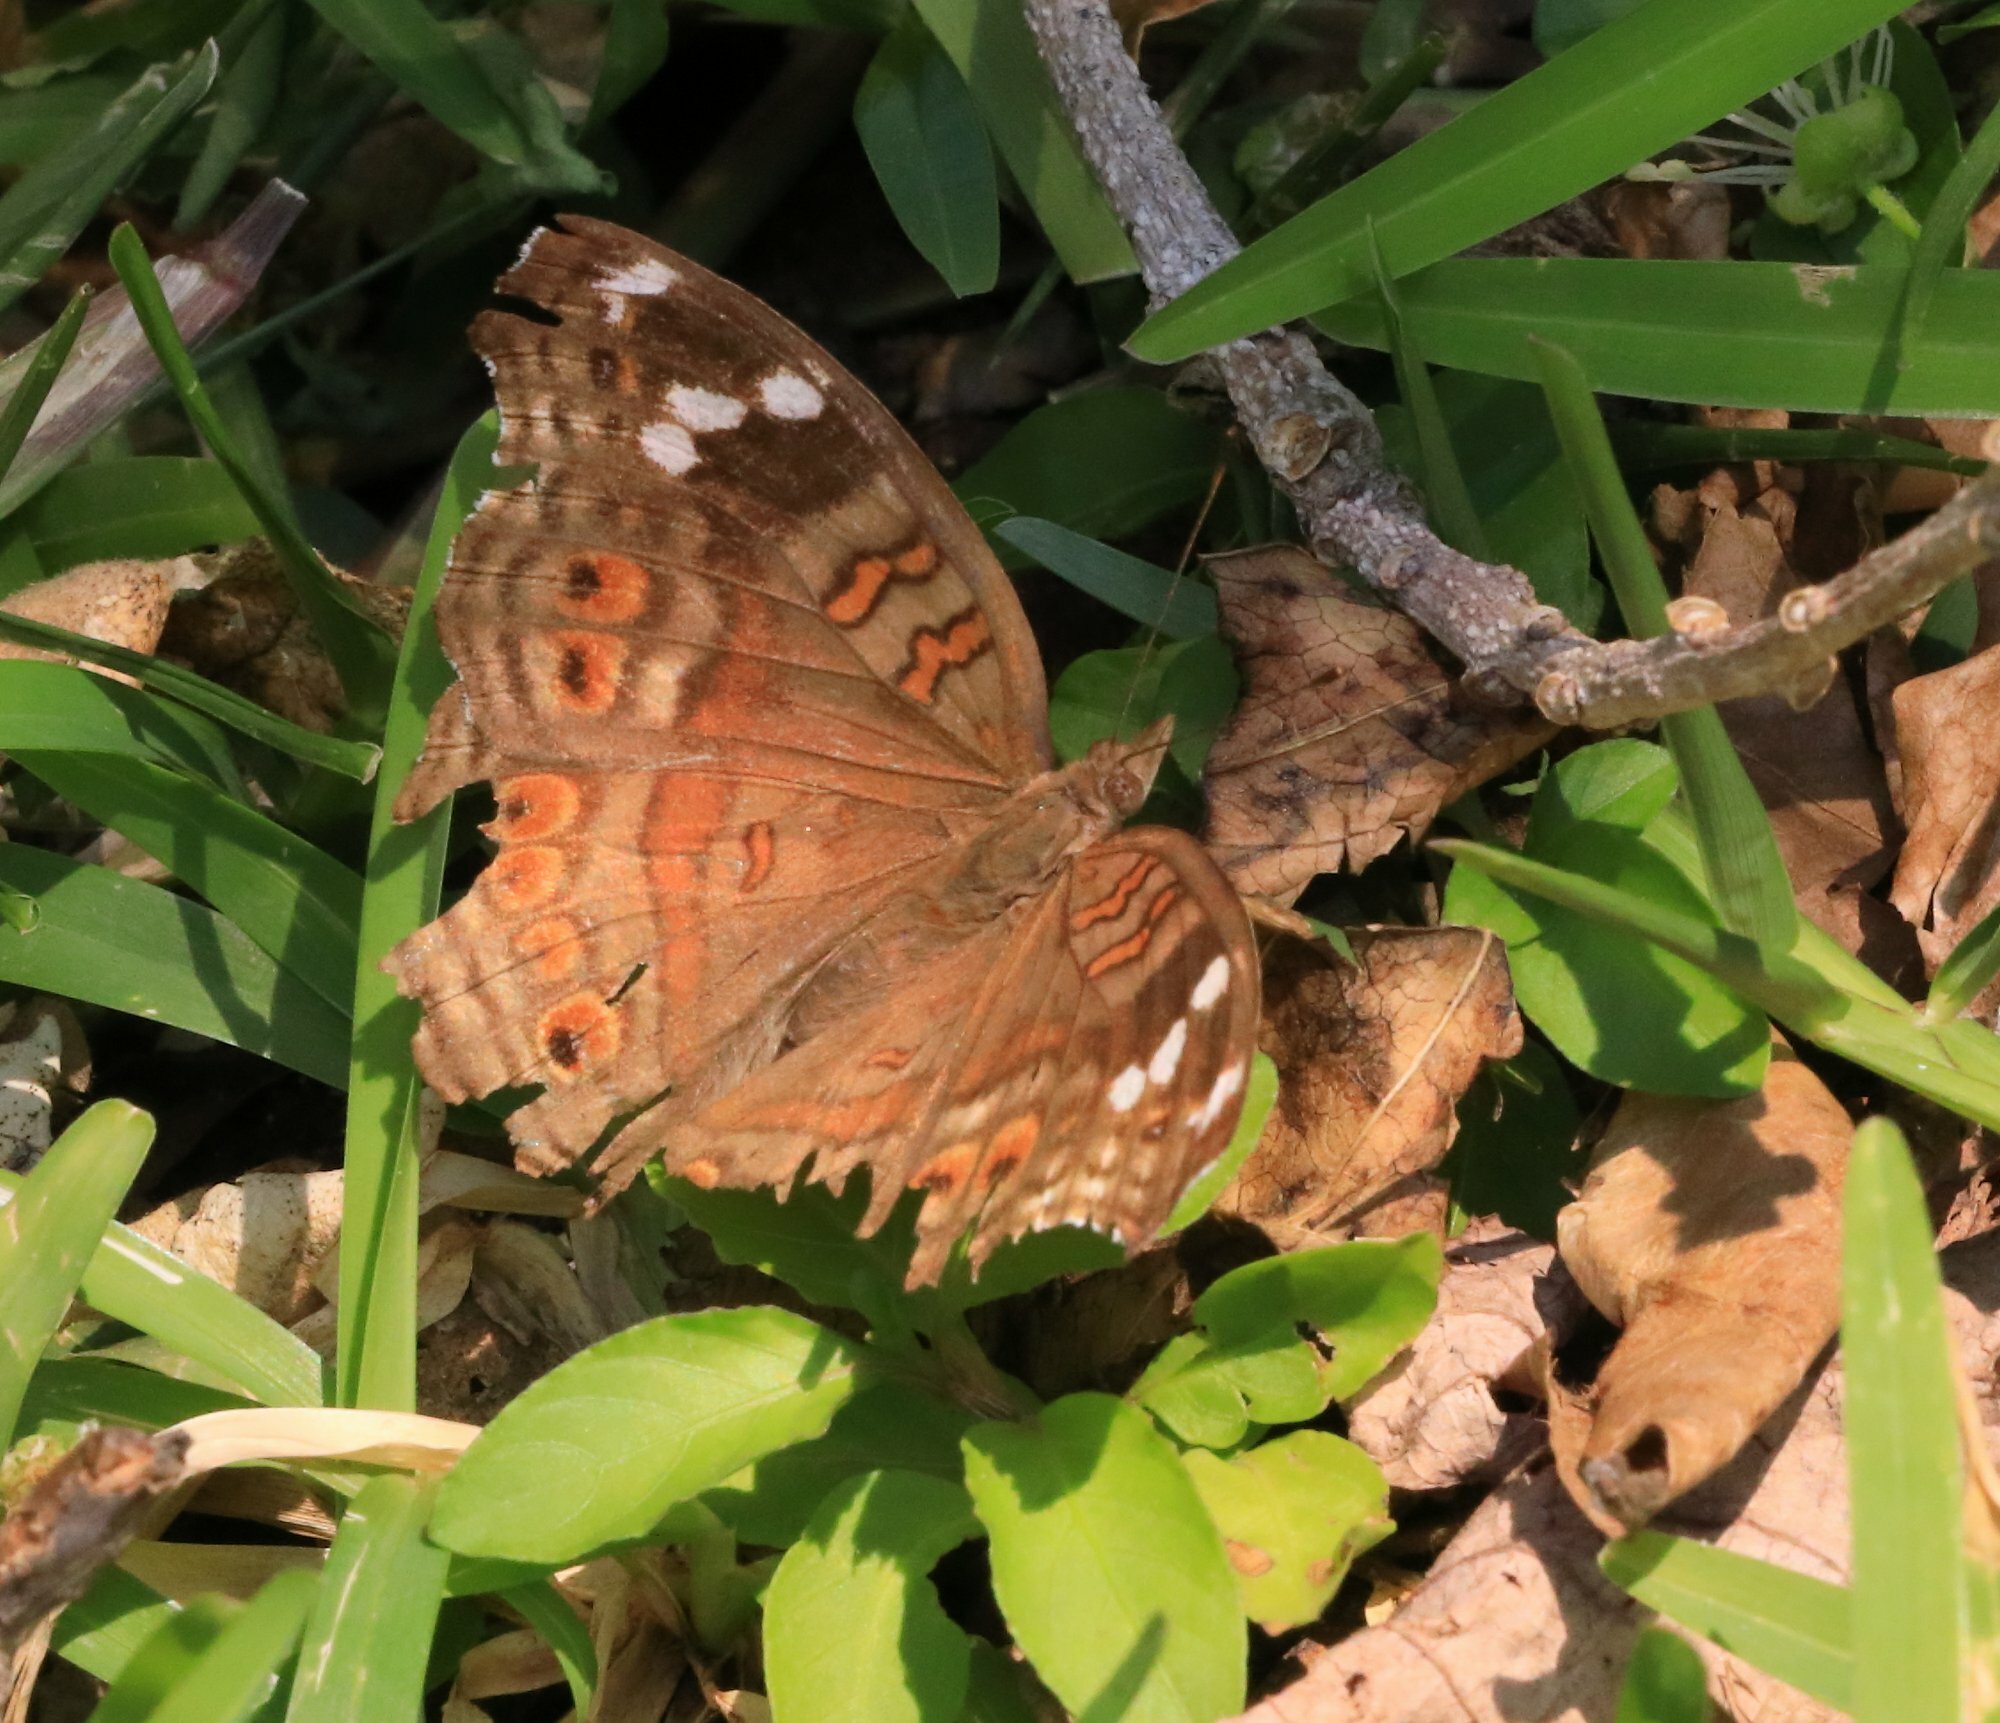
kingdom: Animalia
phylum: Arthropoda
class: Insecta
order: Lepidoptera
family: Nymphalidae
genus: Junonia
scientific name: Junonia natalica
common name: Brown pansy
